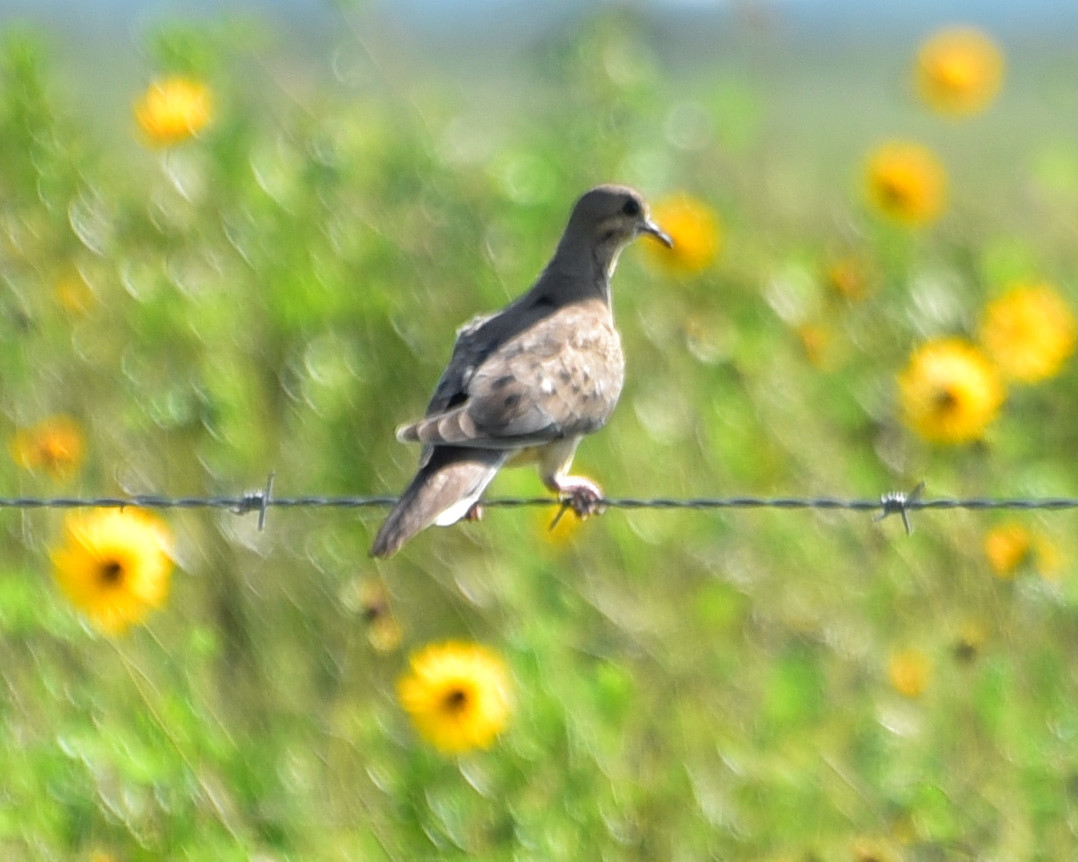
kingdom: Animalia
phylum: Chordata
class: Aves
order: Columbiformes
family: Columbidae
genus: Zenaida
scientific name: Zenaida macroura
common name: Mourning dove
